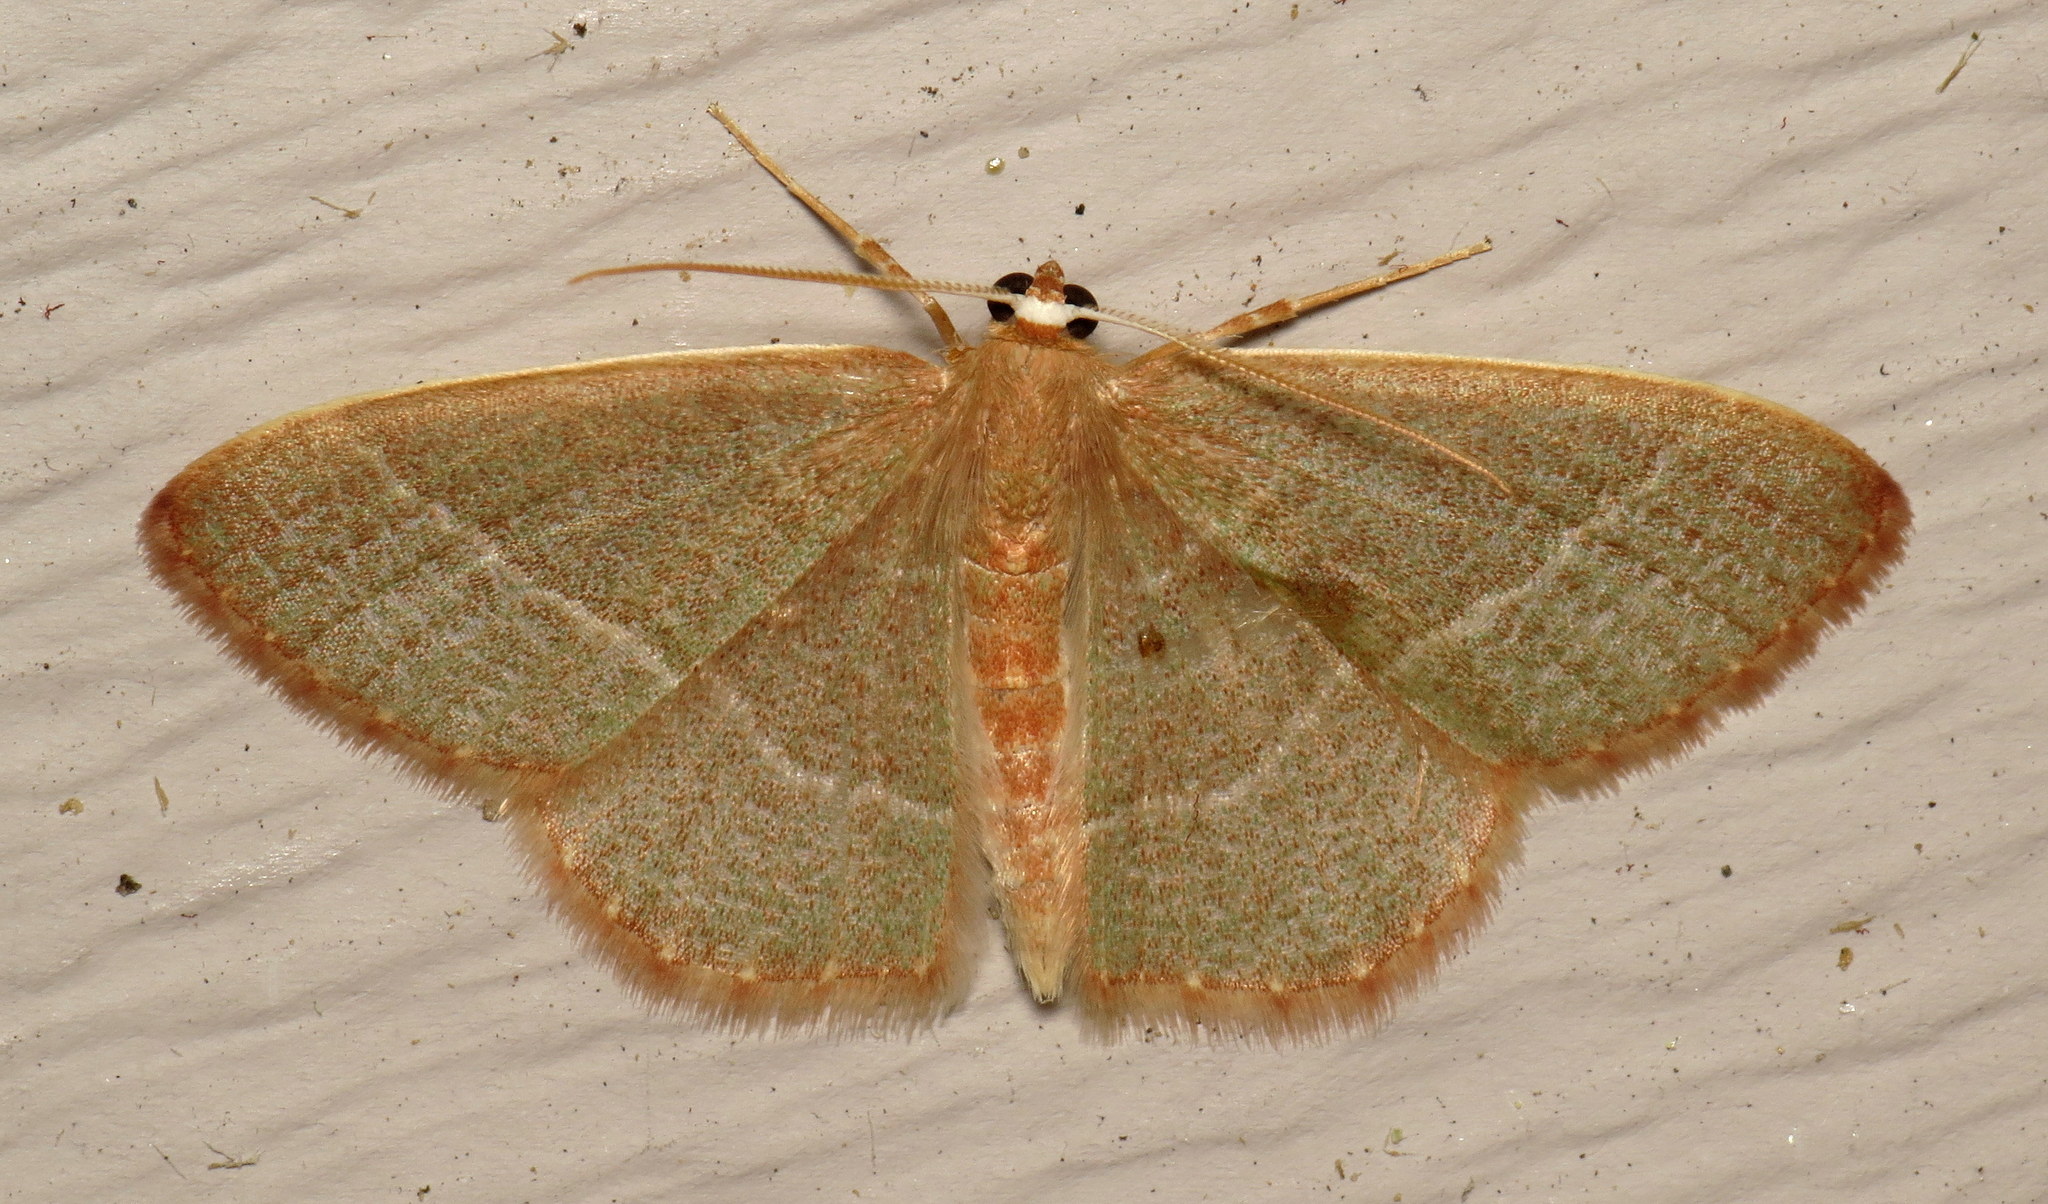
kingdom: Animalia
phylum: Arthropoda
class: Insecta
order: Lepidoptera
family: Geometridae
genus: Nemoria
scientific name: Nemoria bistriaria
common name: Red-fringed emerald
